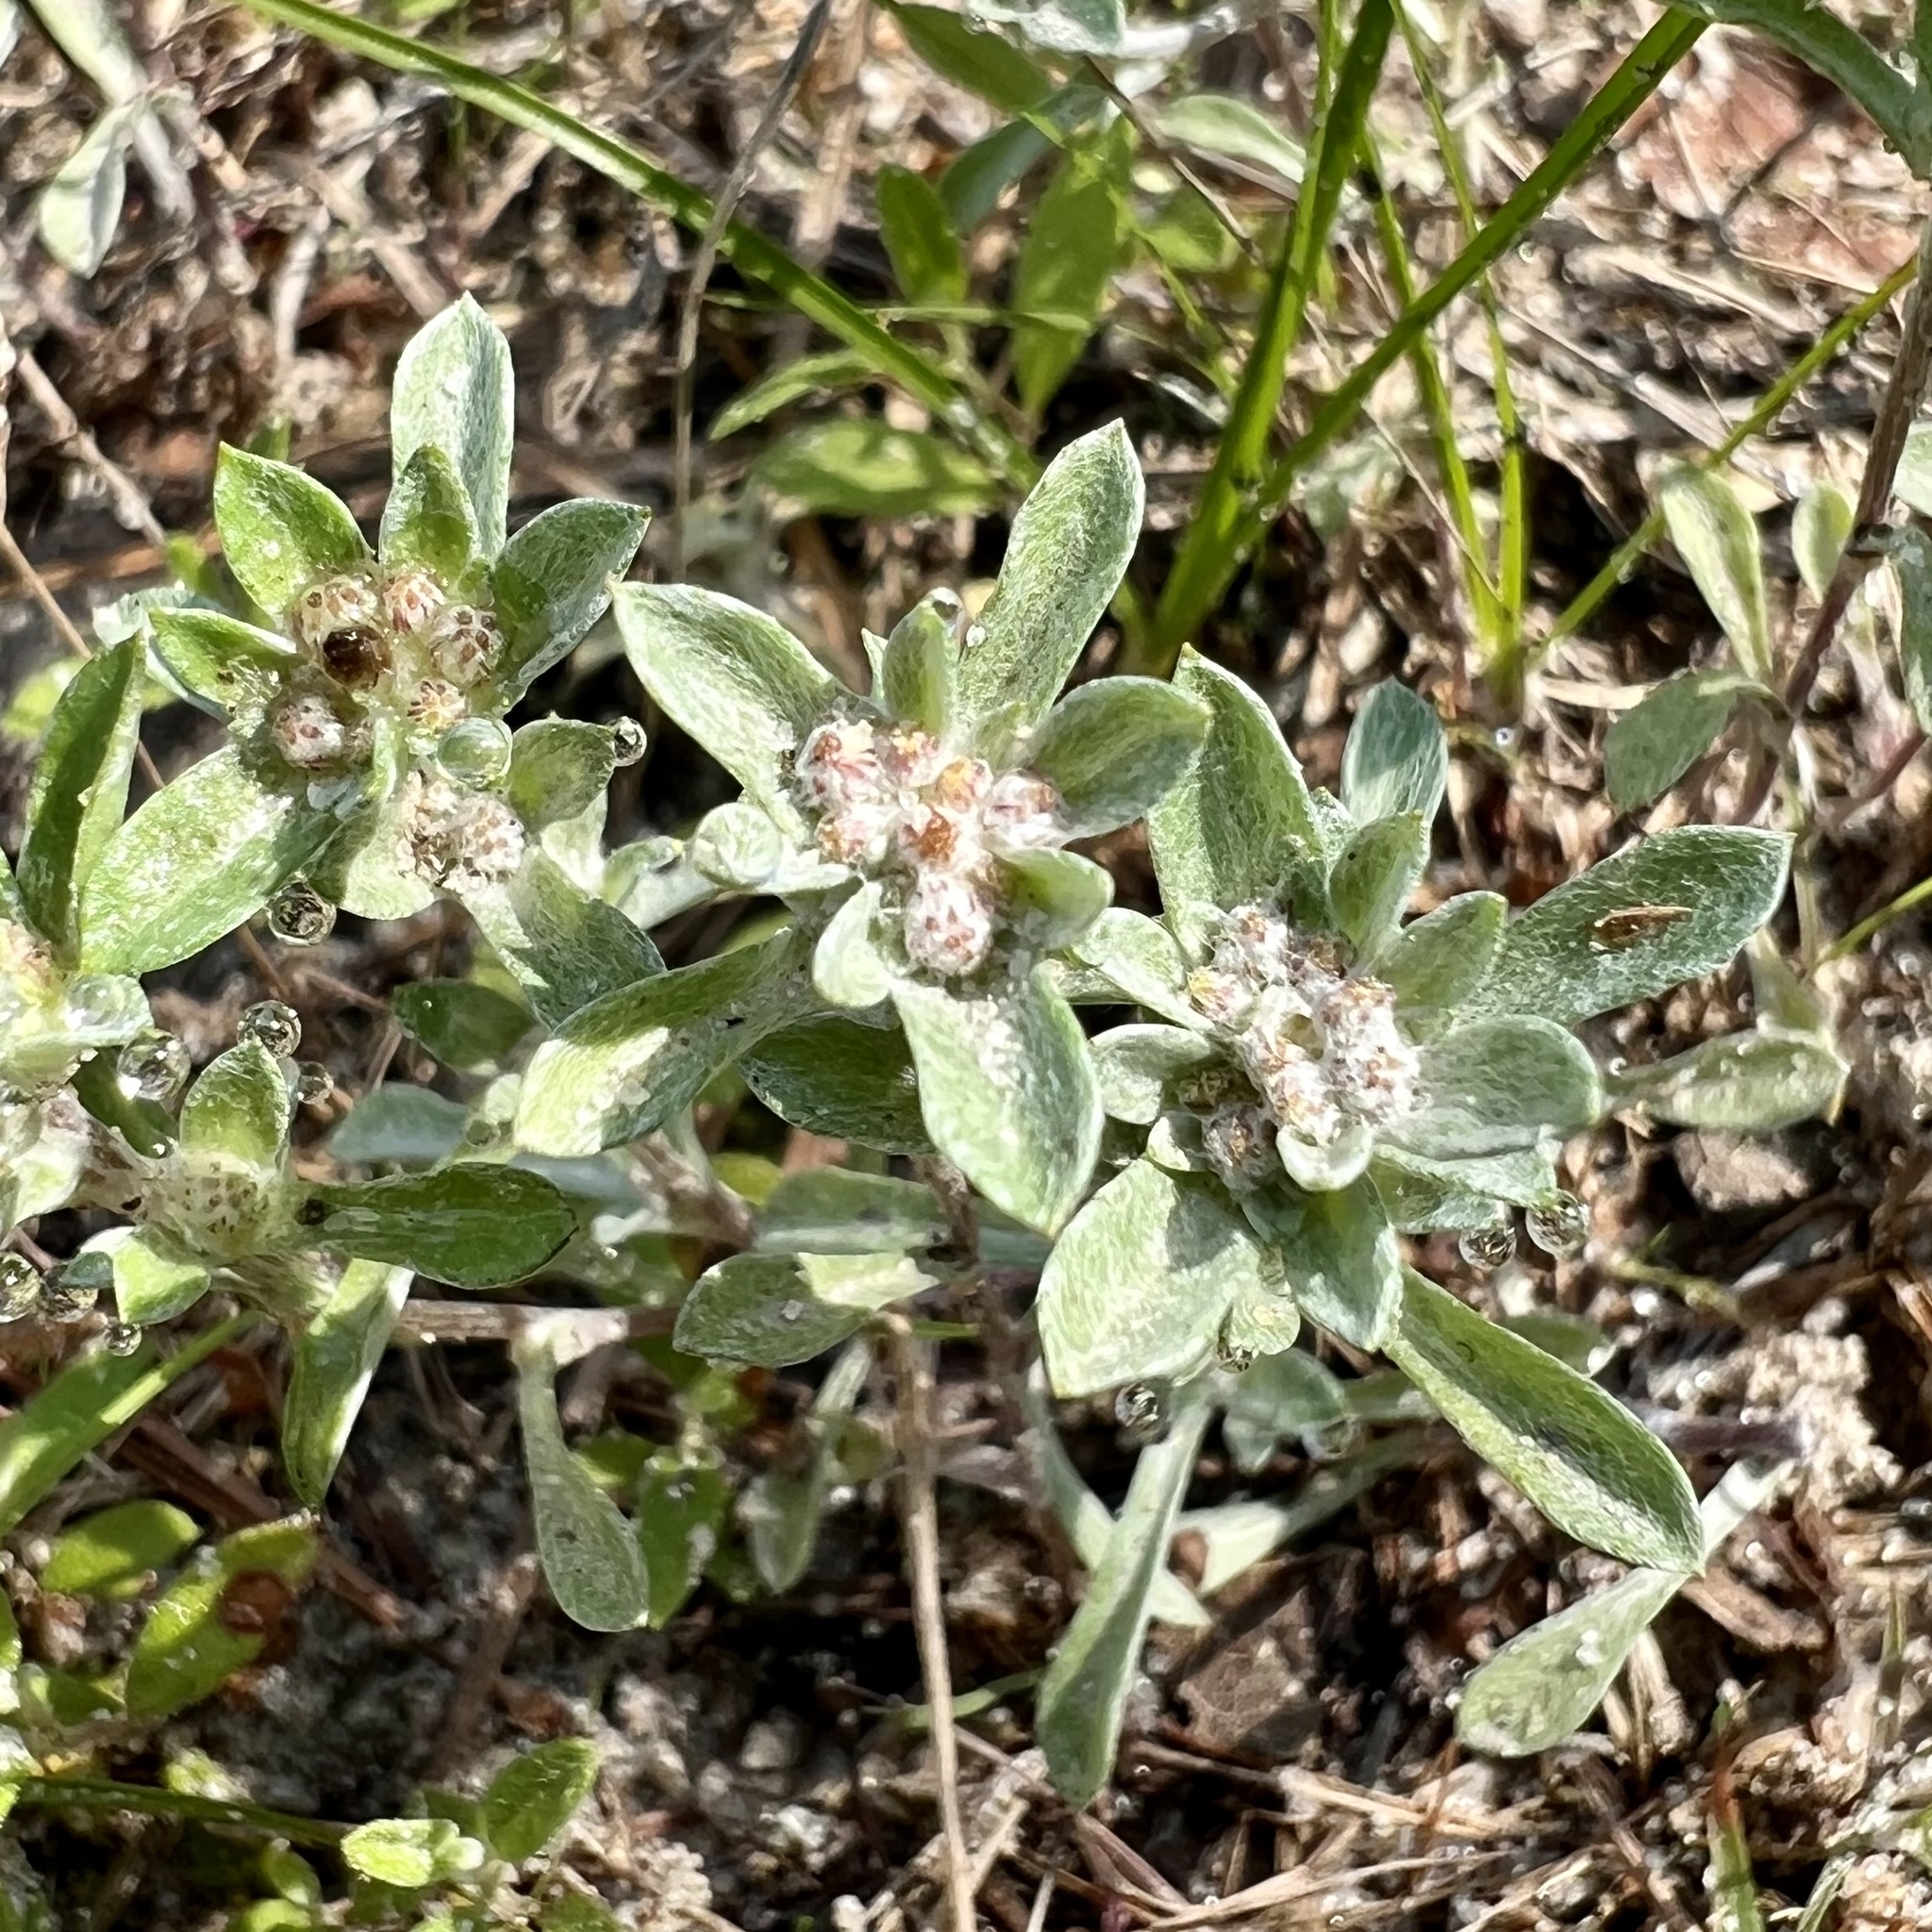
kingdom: Plantae
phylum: Tracheophyta
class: Magnoliopsida
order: Asterales
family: Asteraceae
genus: Diaperia
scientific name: Diaperia candida
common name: Silver rabbit-tobacco
